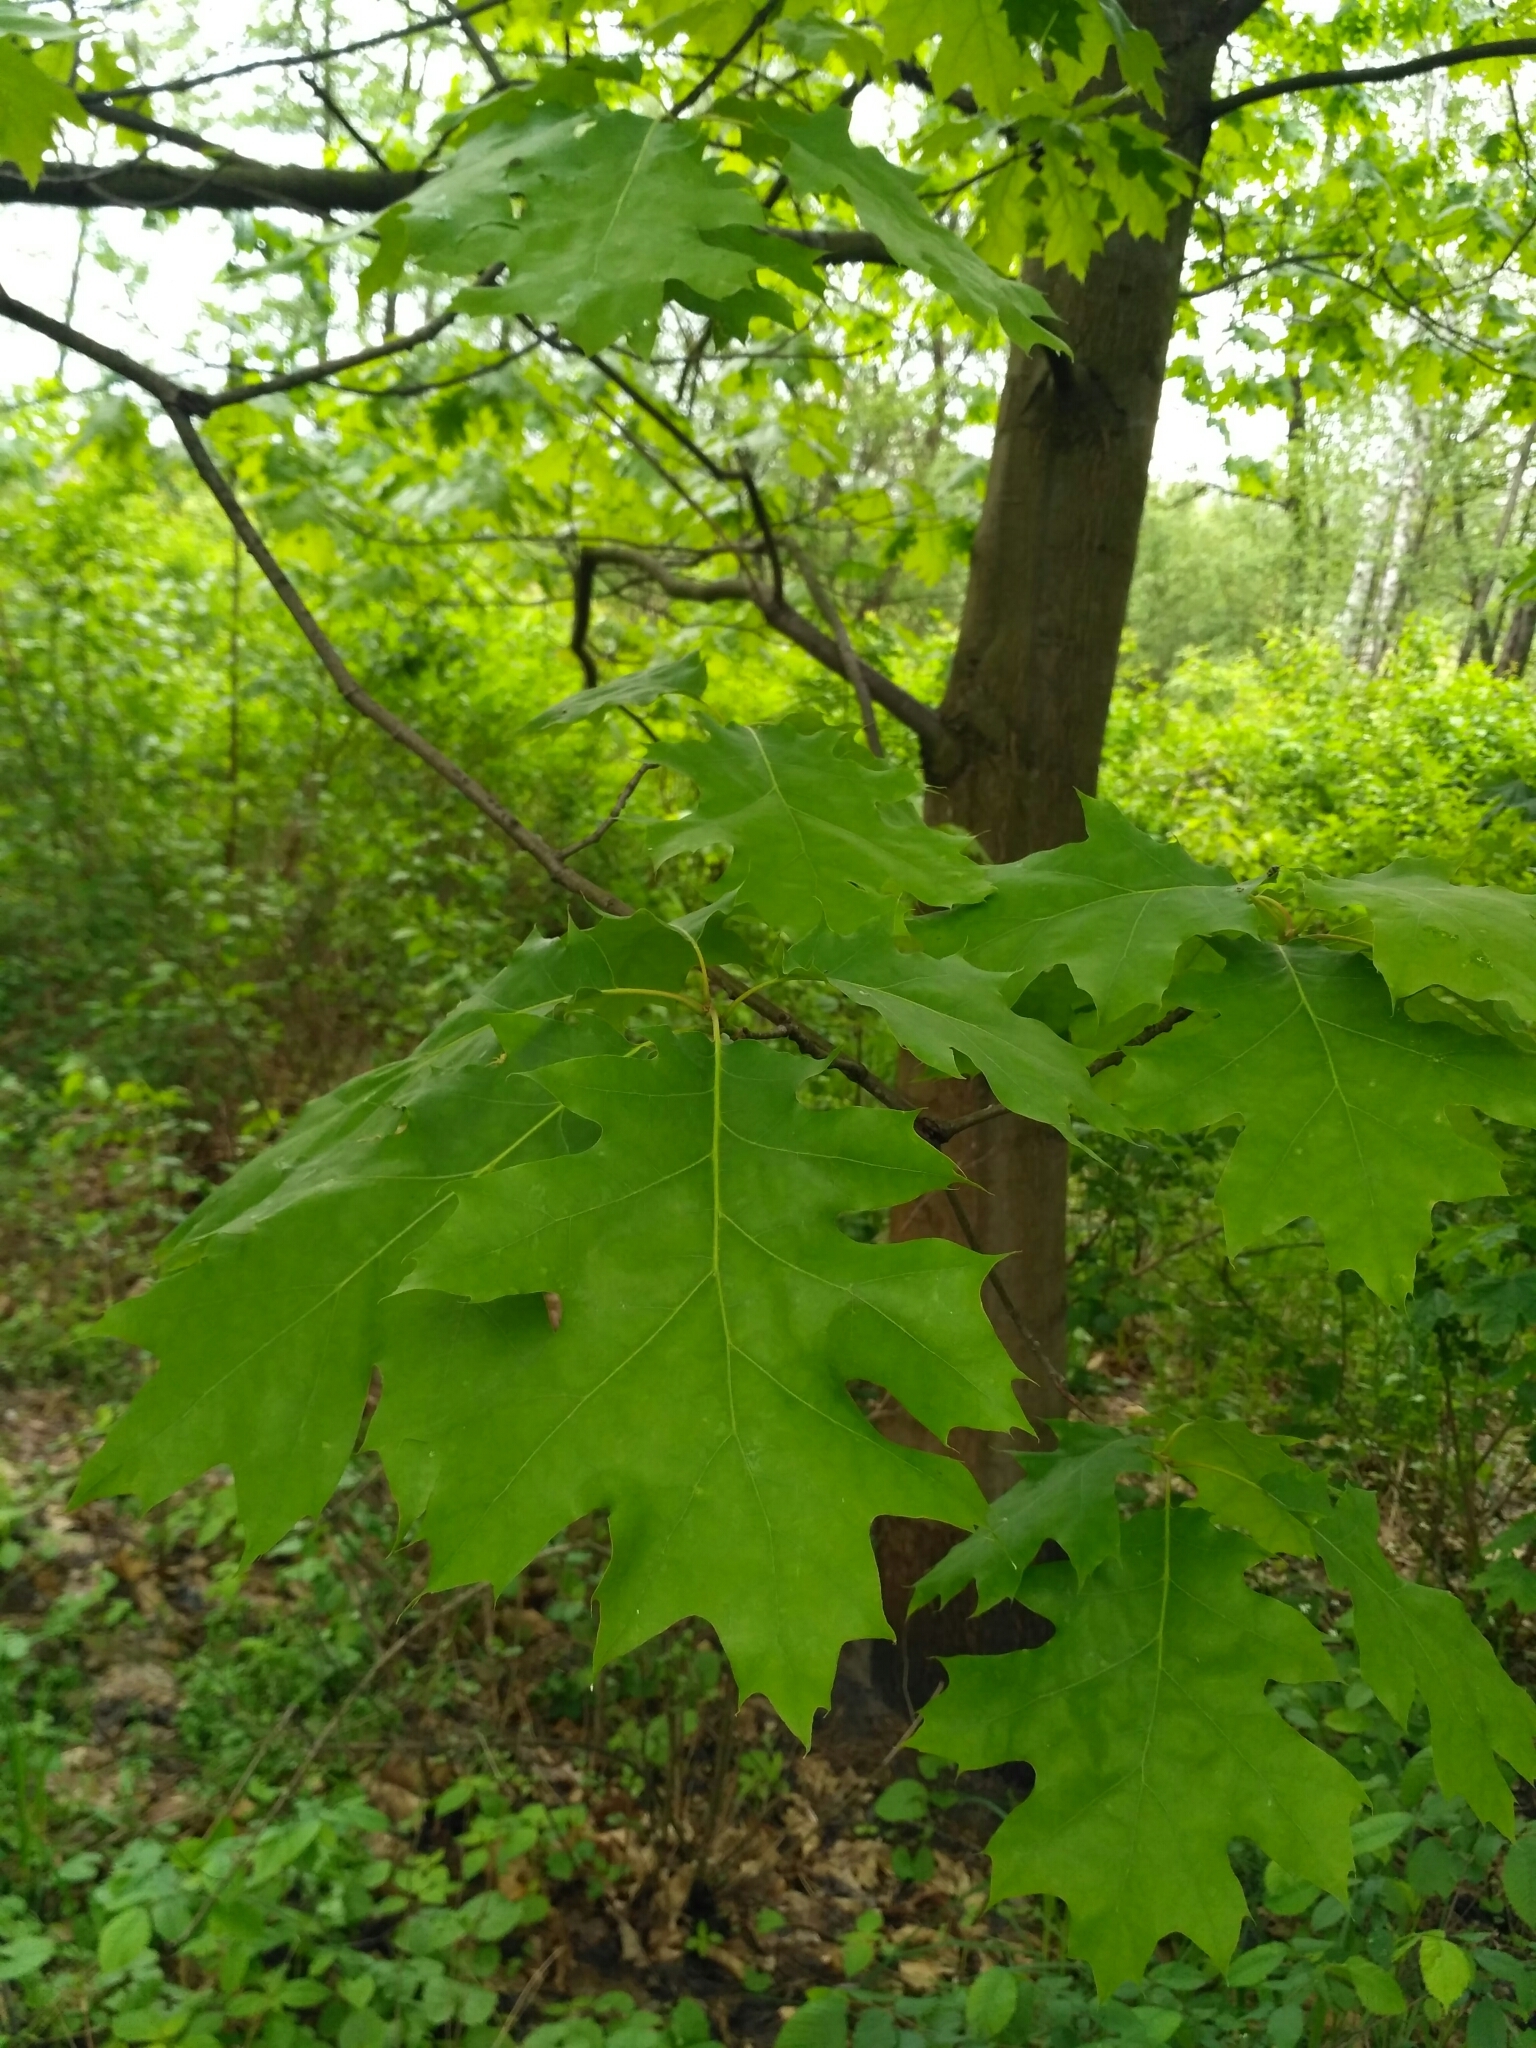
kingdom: Plantae
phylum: Tracheophyta
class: Magnoliopsida
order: Fagales
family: Fagaceae
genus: Quercus
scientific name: Quercus rubra
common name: Red oak
